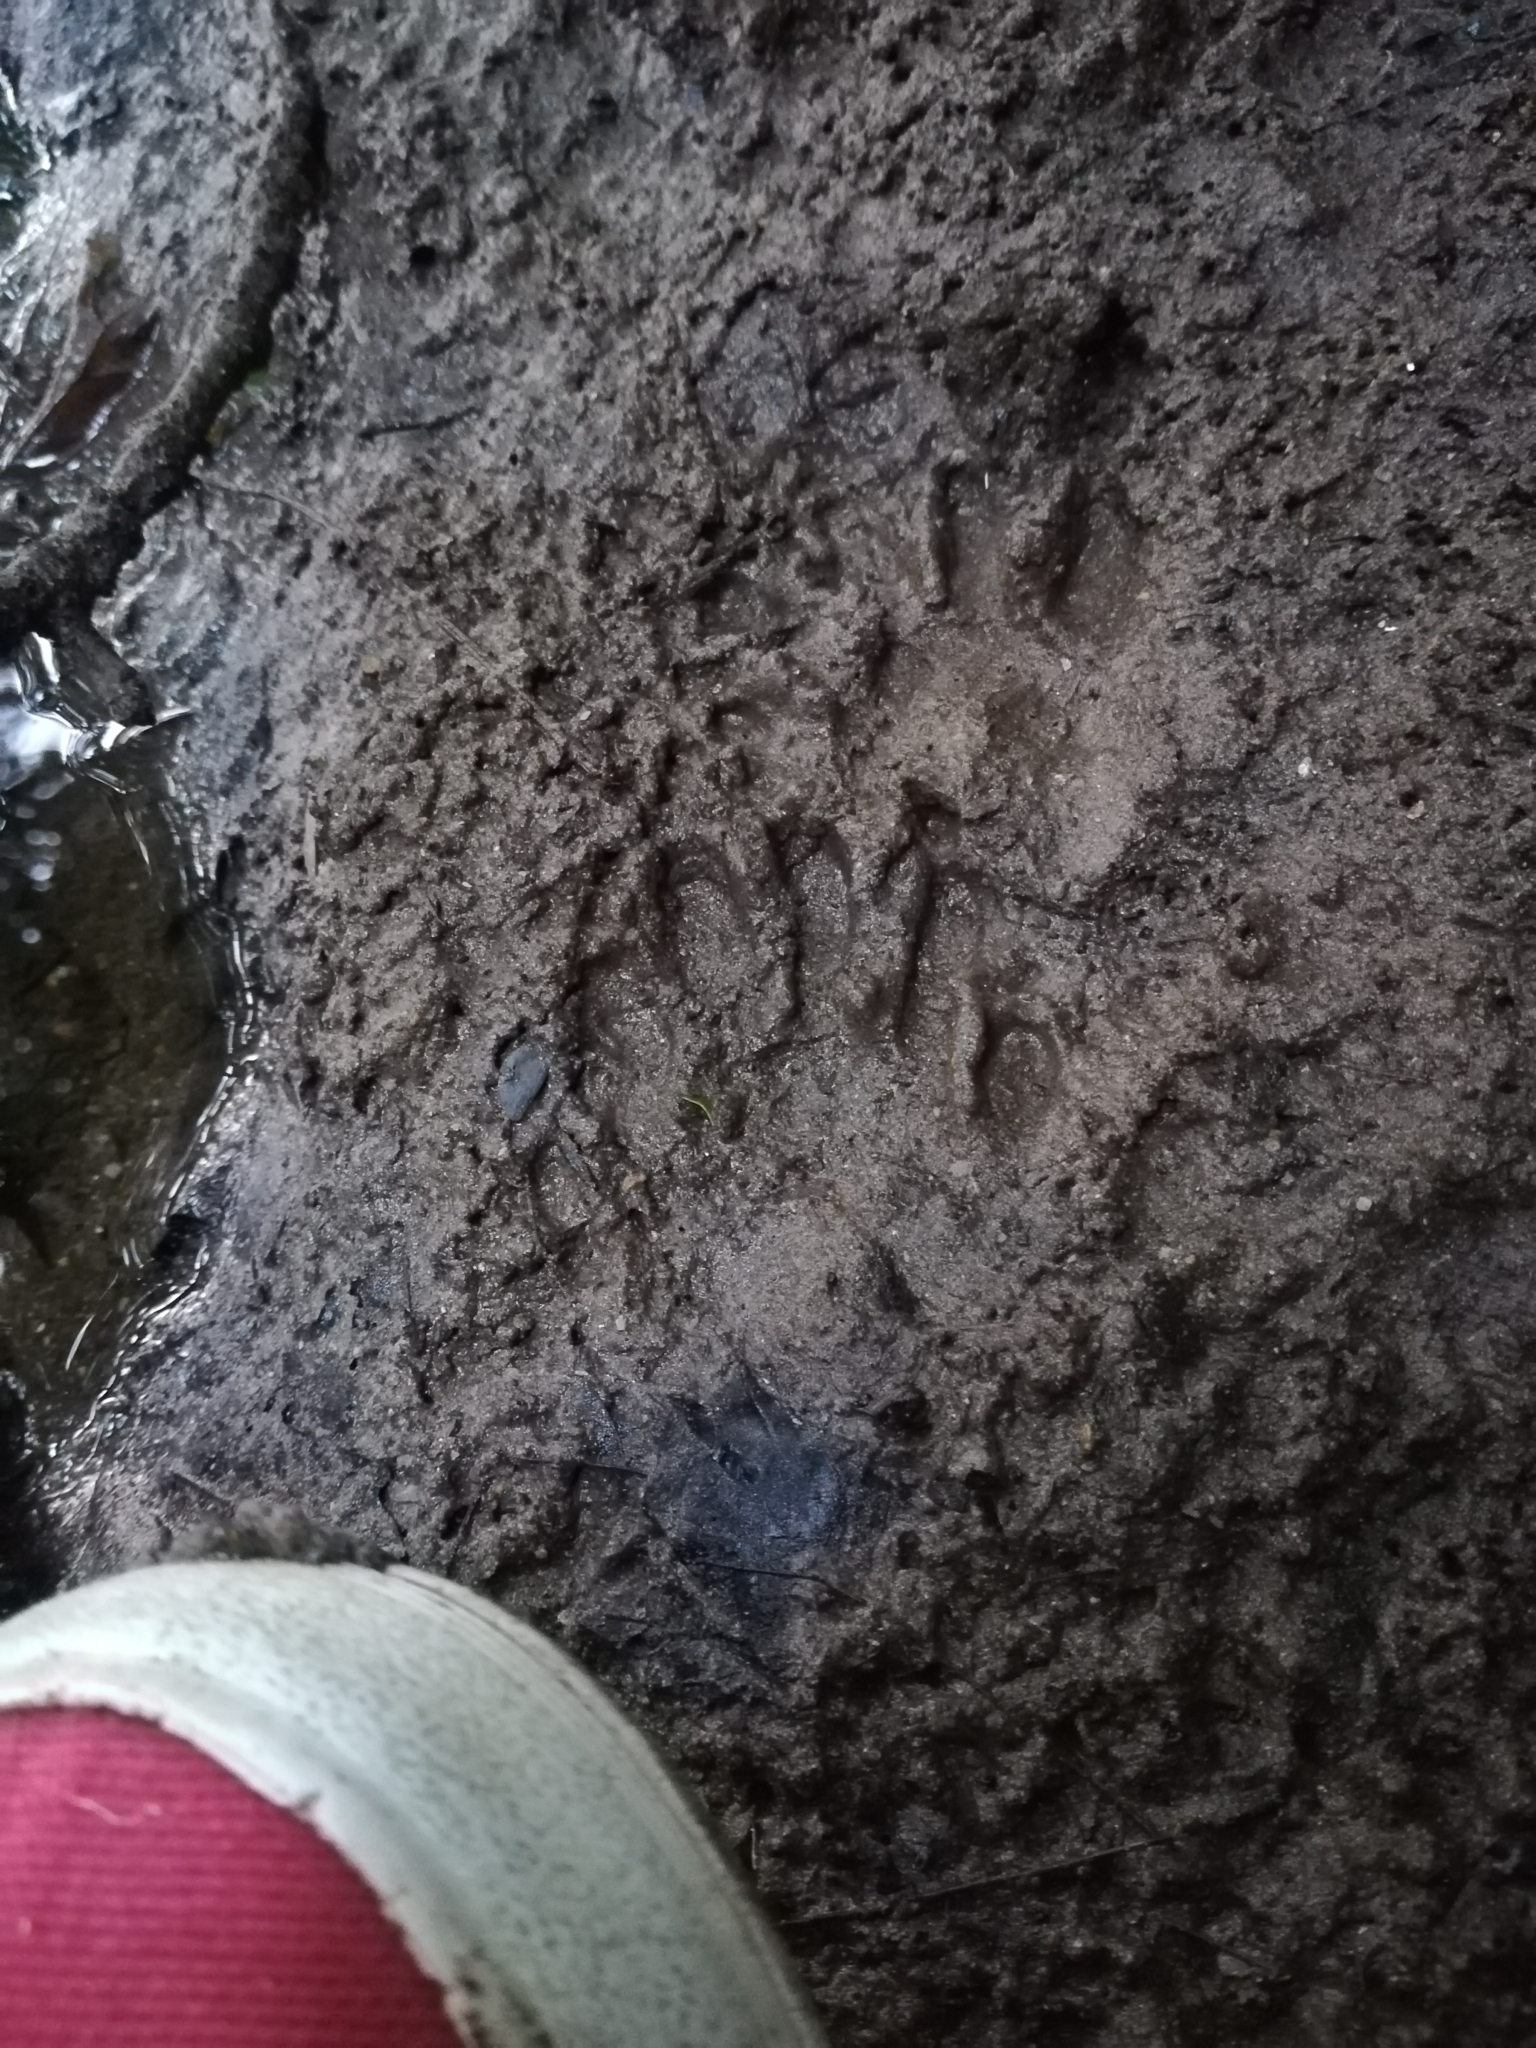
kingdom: Animalia
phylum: Chordata
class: Mammalia
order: Carnivora
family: Procyonidae
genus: Procyon
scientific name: Procyon lotor
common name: Raccoon
